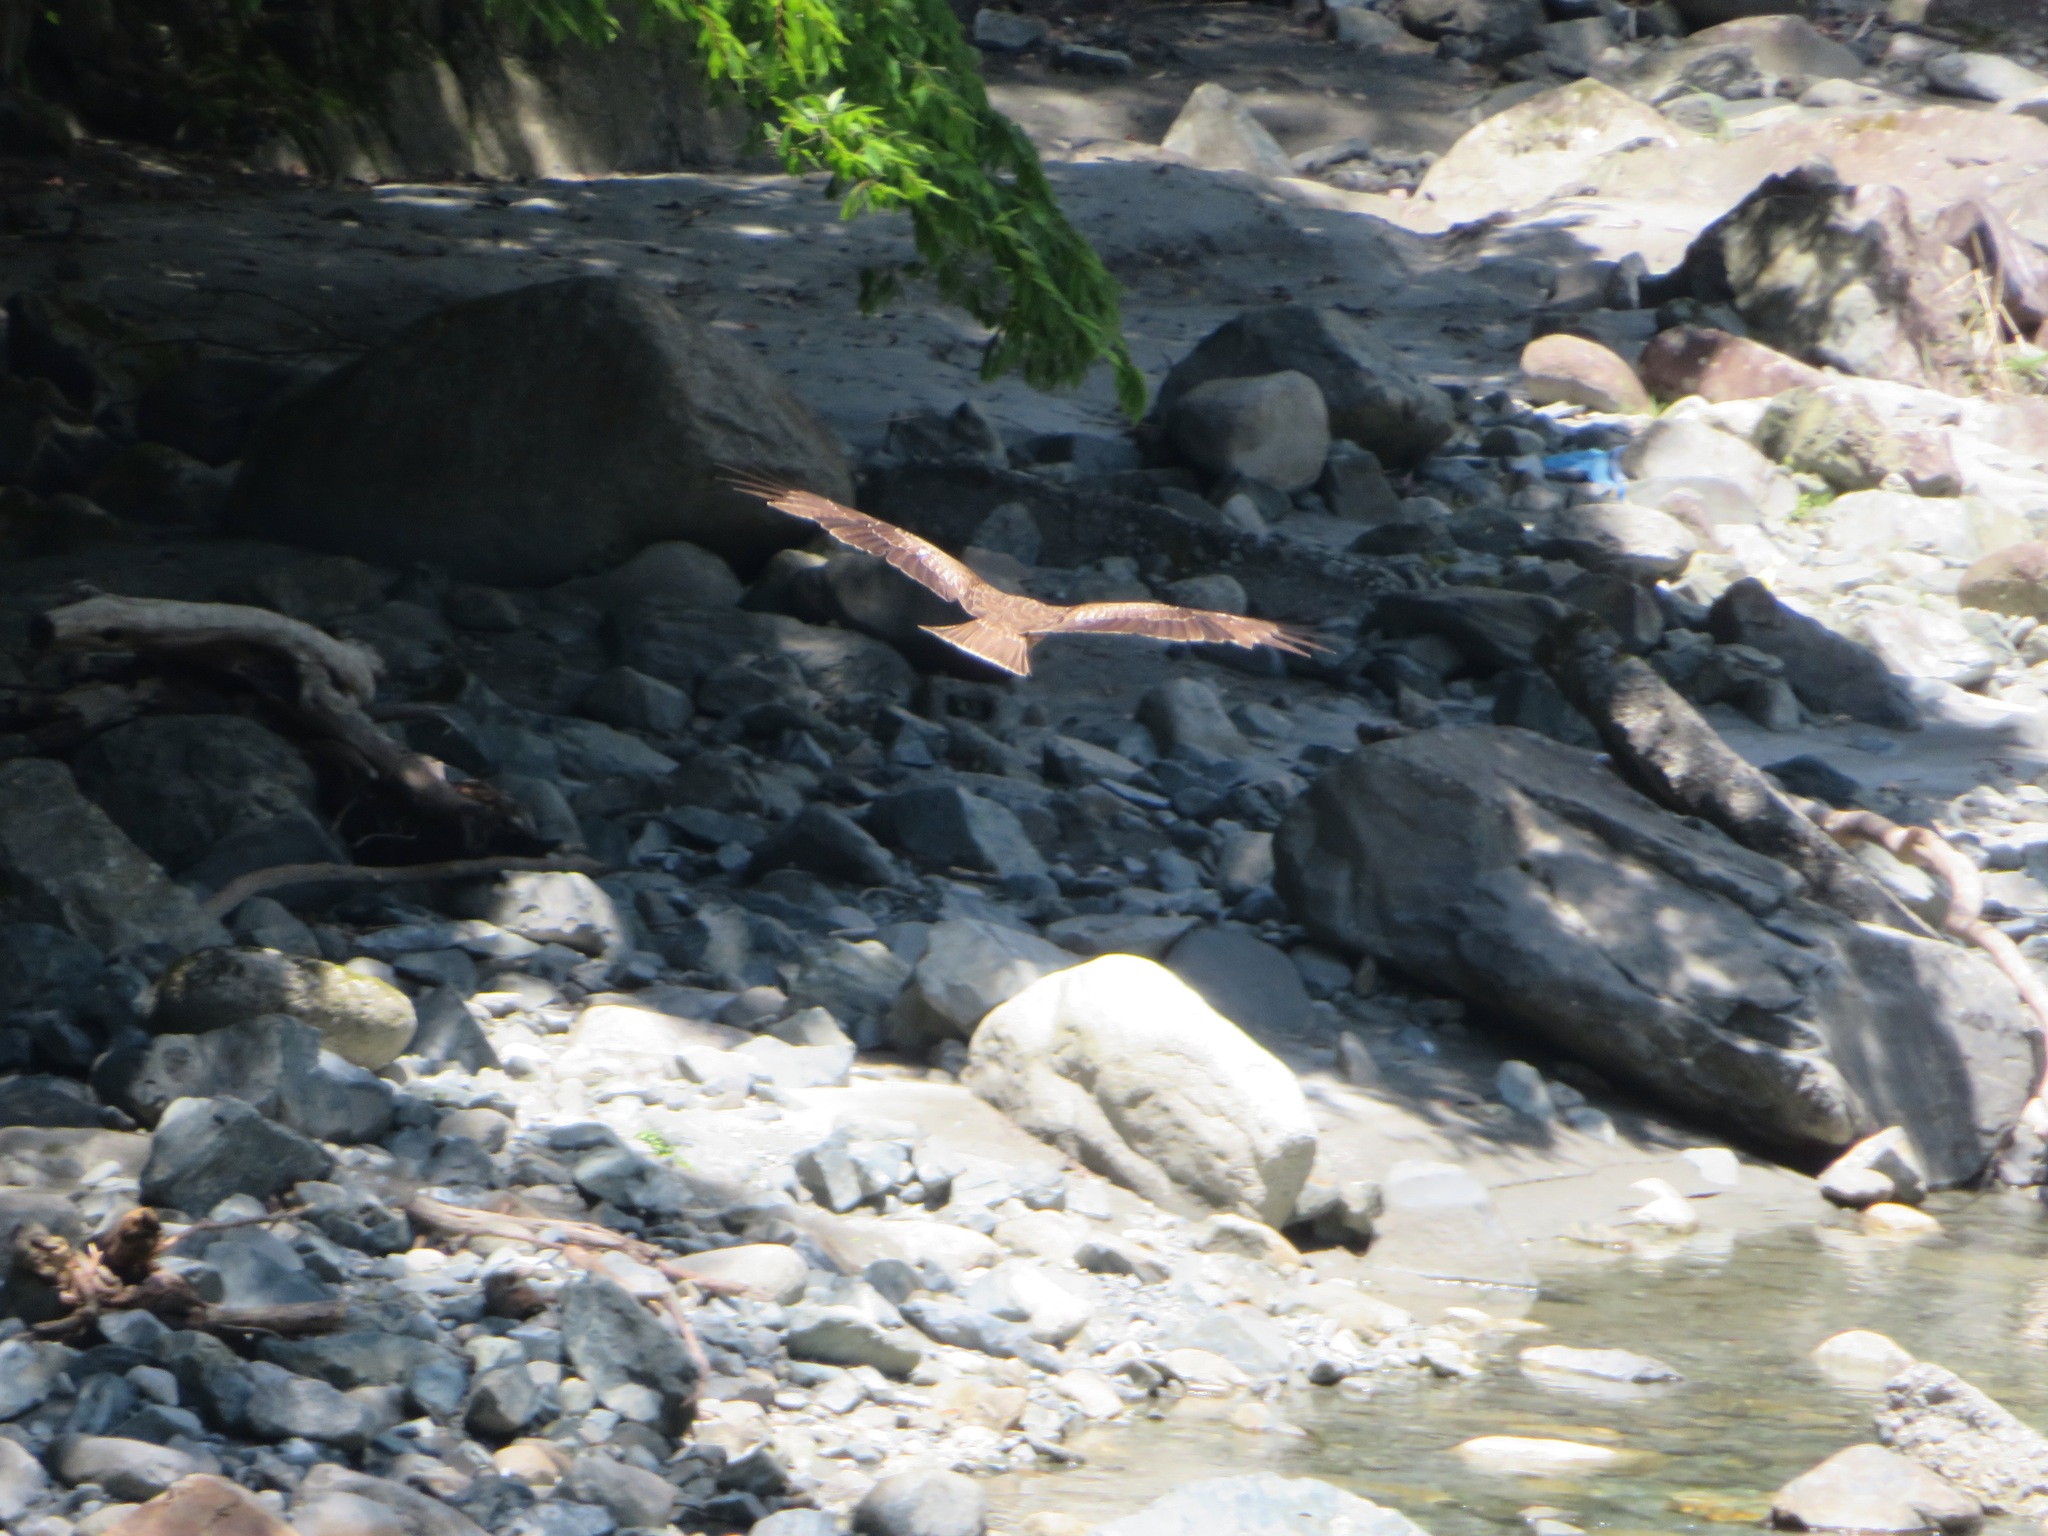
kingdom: Animalia
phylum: Chordata
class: Aves
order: Accipitriformes
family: Accipitridae
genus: Milvus
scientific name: Milvus migrans
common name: Black kite
